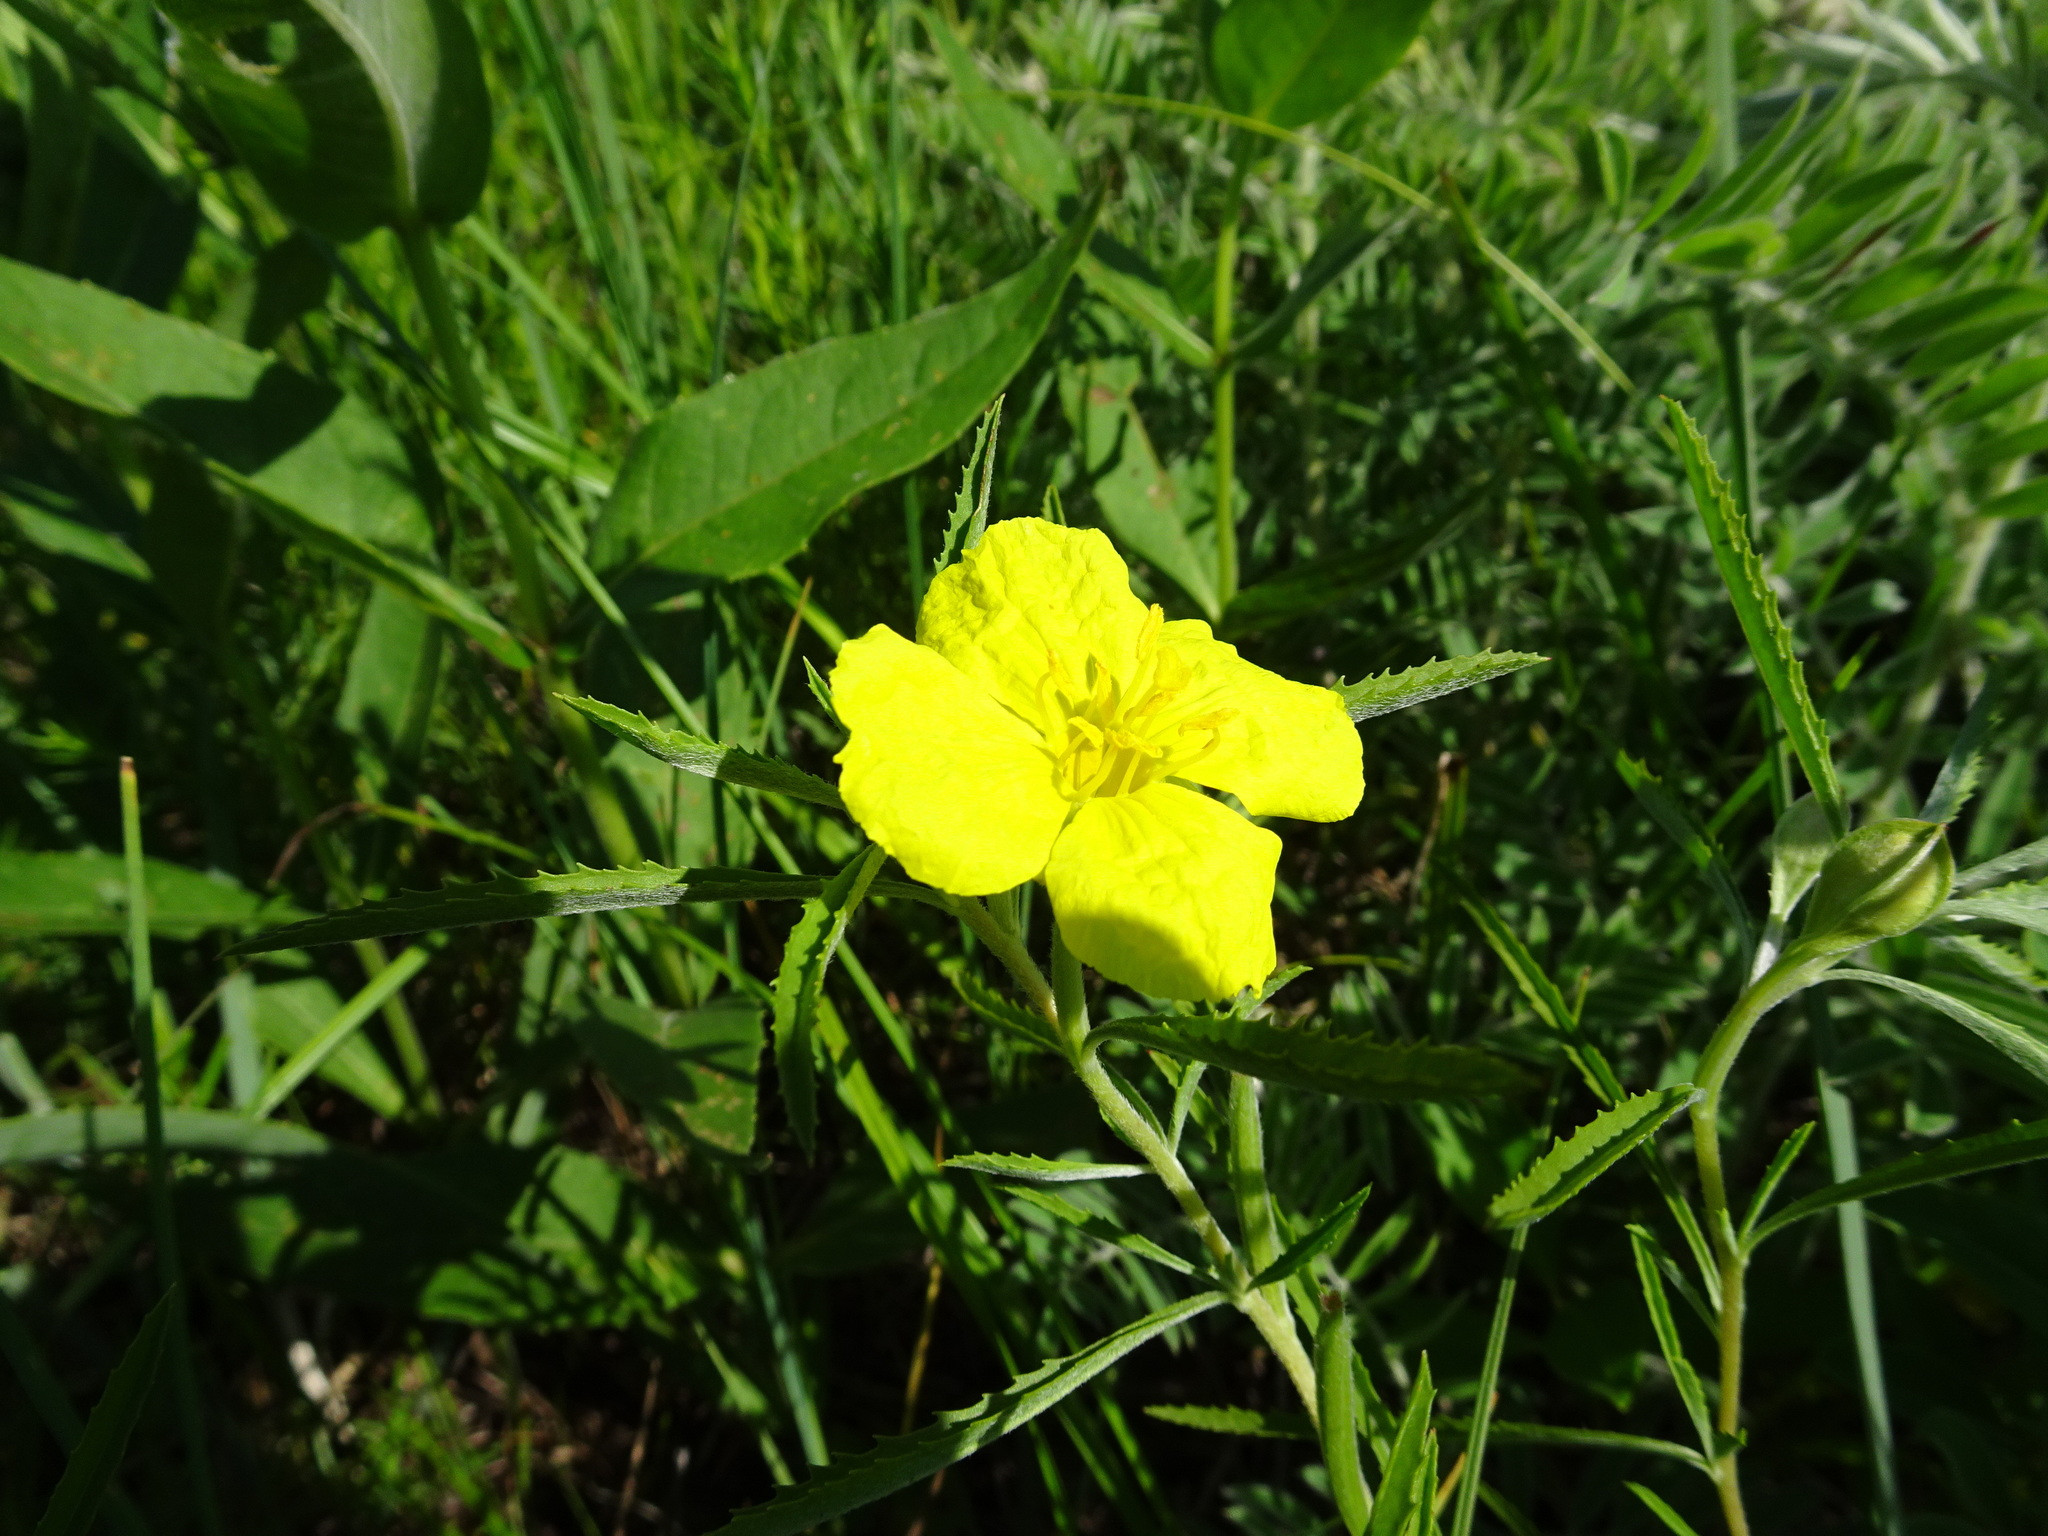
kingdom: Plantae
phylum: Tracheophyta
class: Magnoliopsida
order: Myrtales
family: Onagraceae
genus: Oenothera
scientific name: Oenothera serrulata
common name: Half-shrub calylophus
